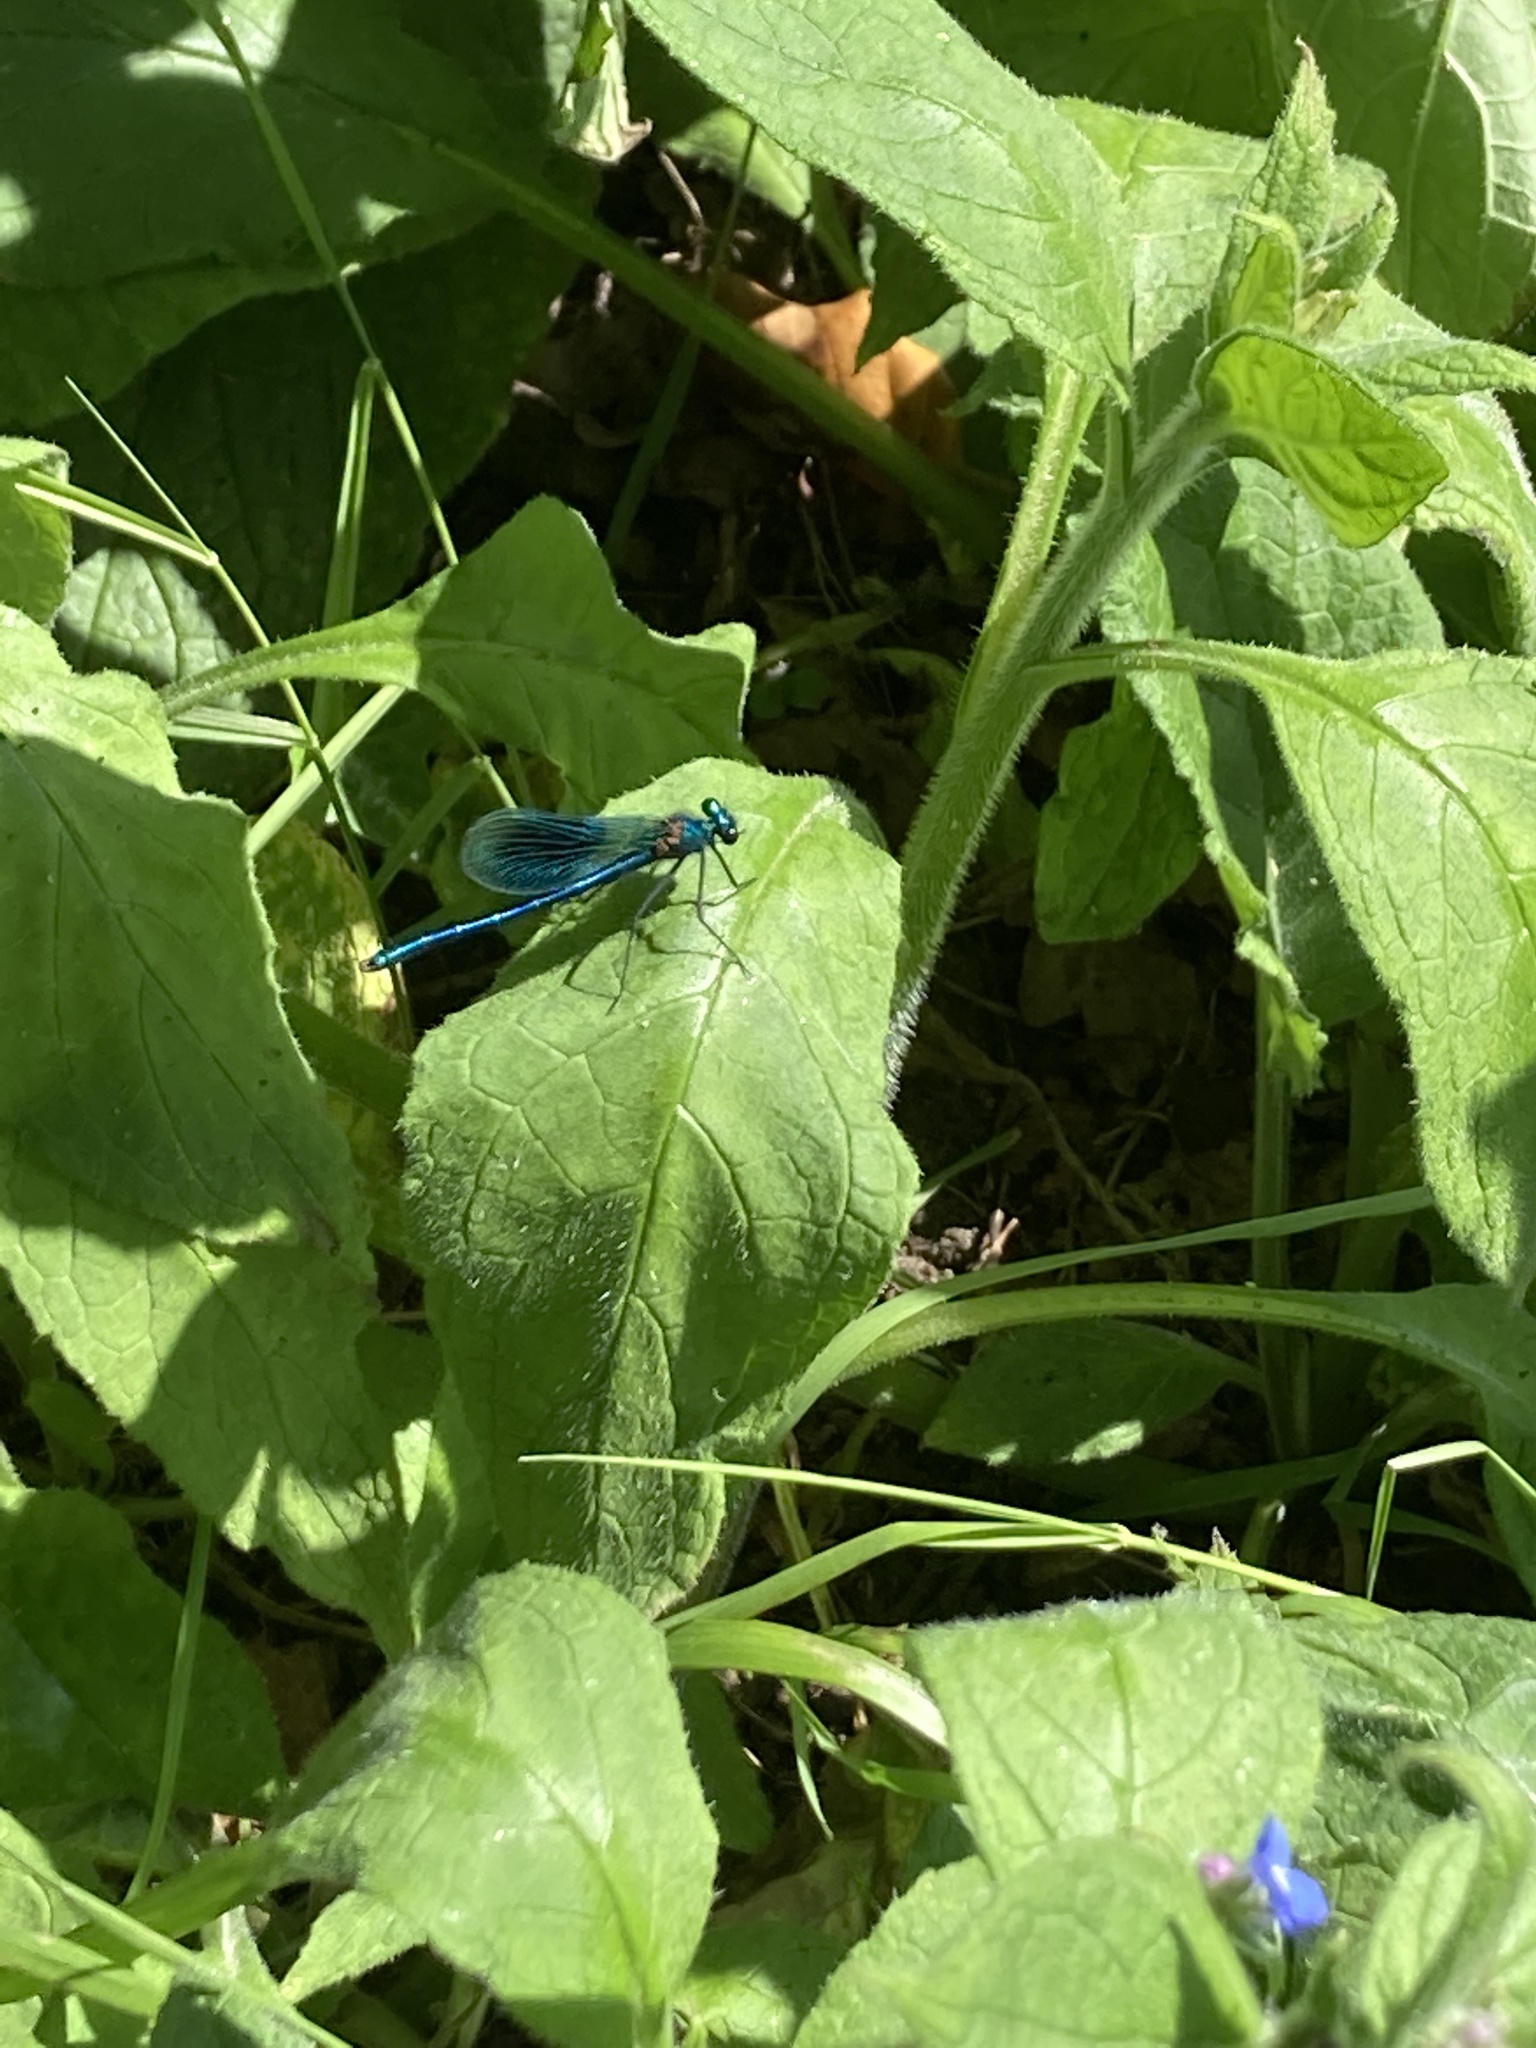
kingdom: Animalia
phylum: Arthropoda
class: Insecta
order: Odonata
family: Calopterygidae
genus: Calopteryx
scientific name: Calopteryx splendens
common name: Banded demoiselle
